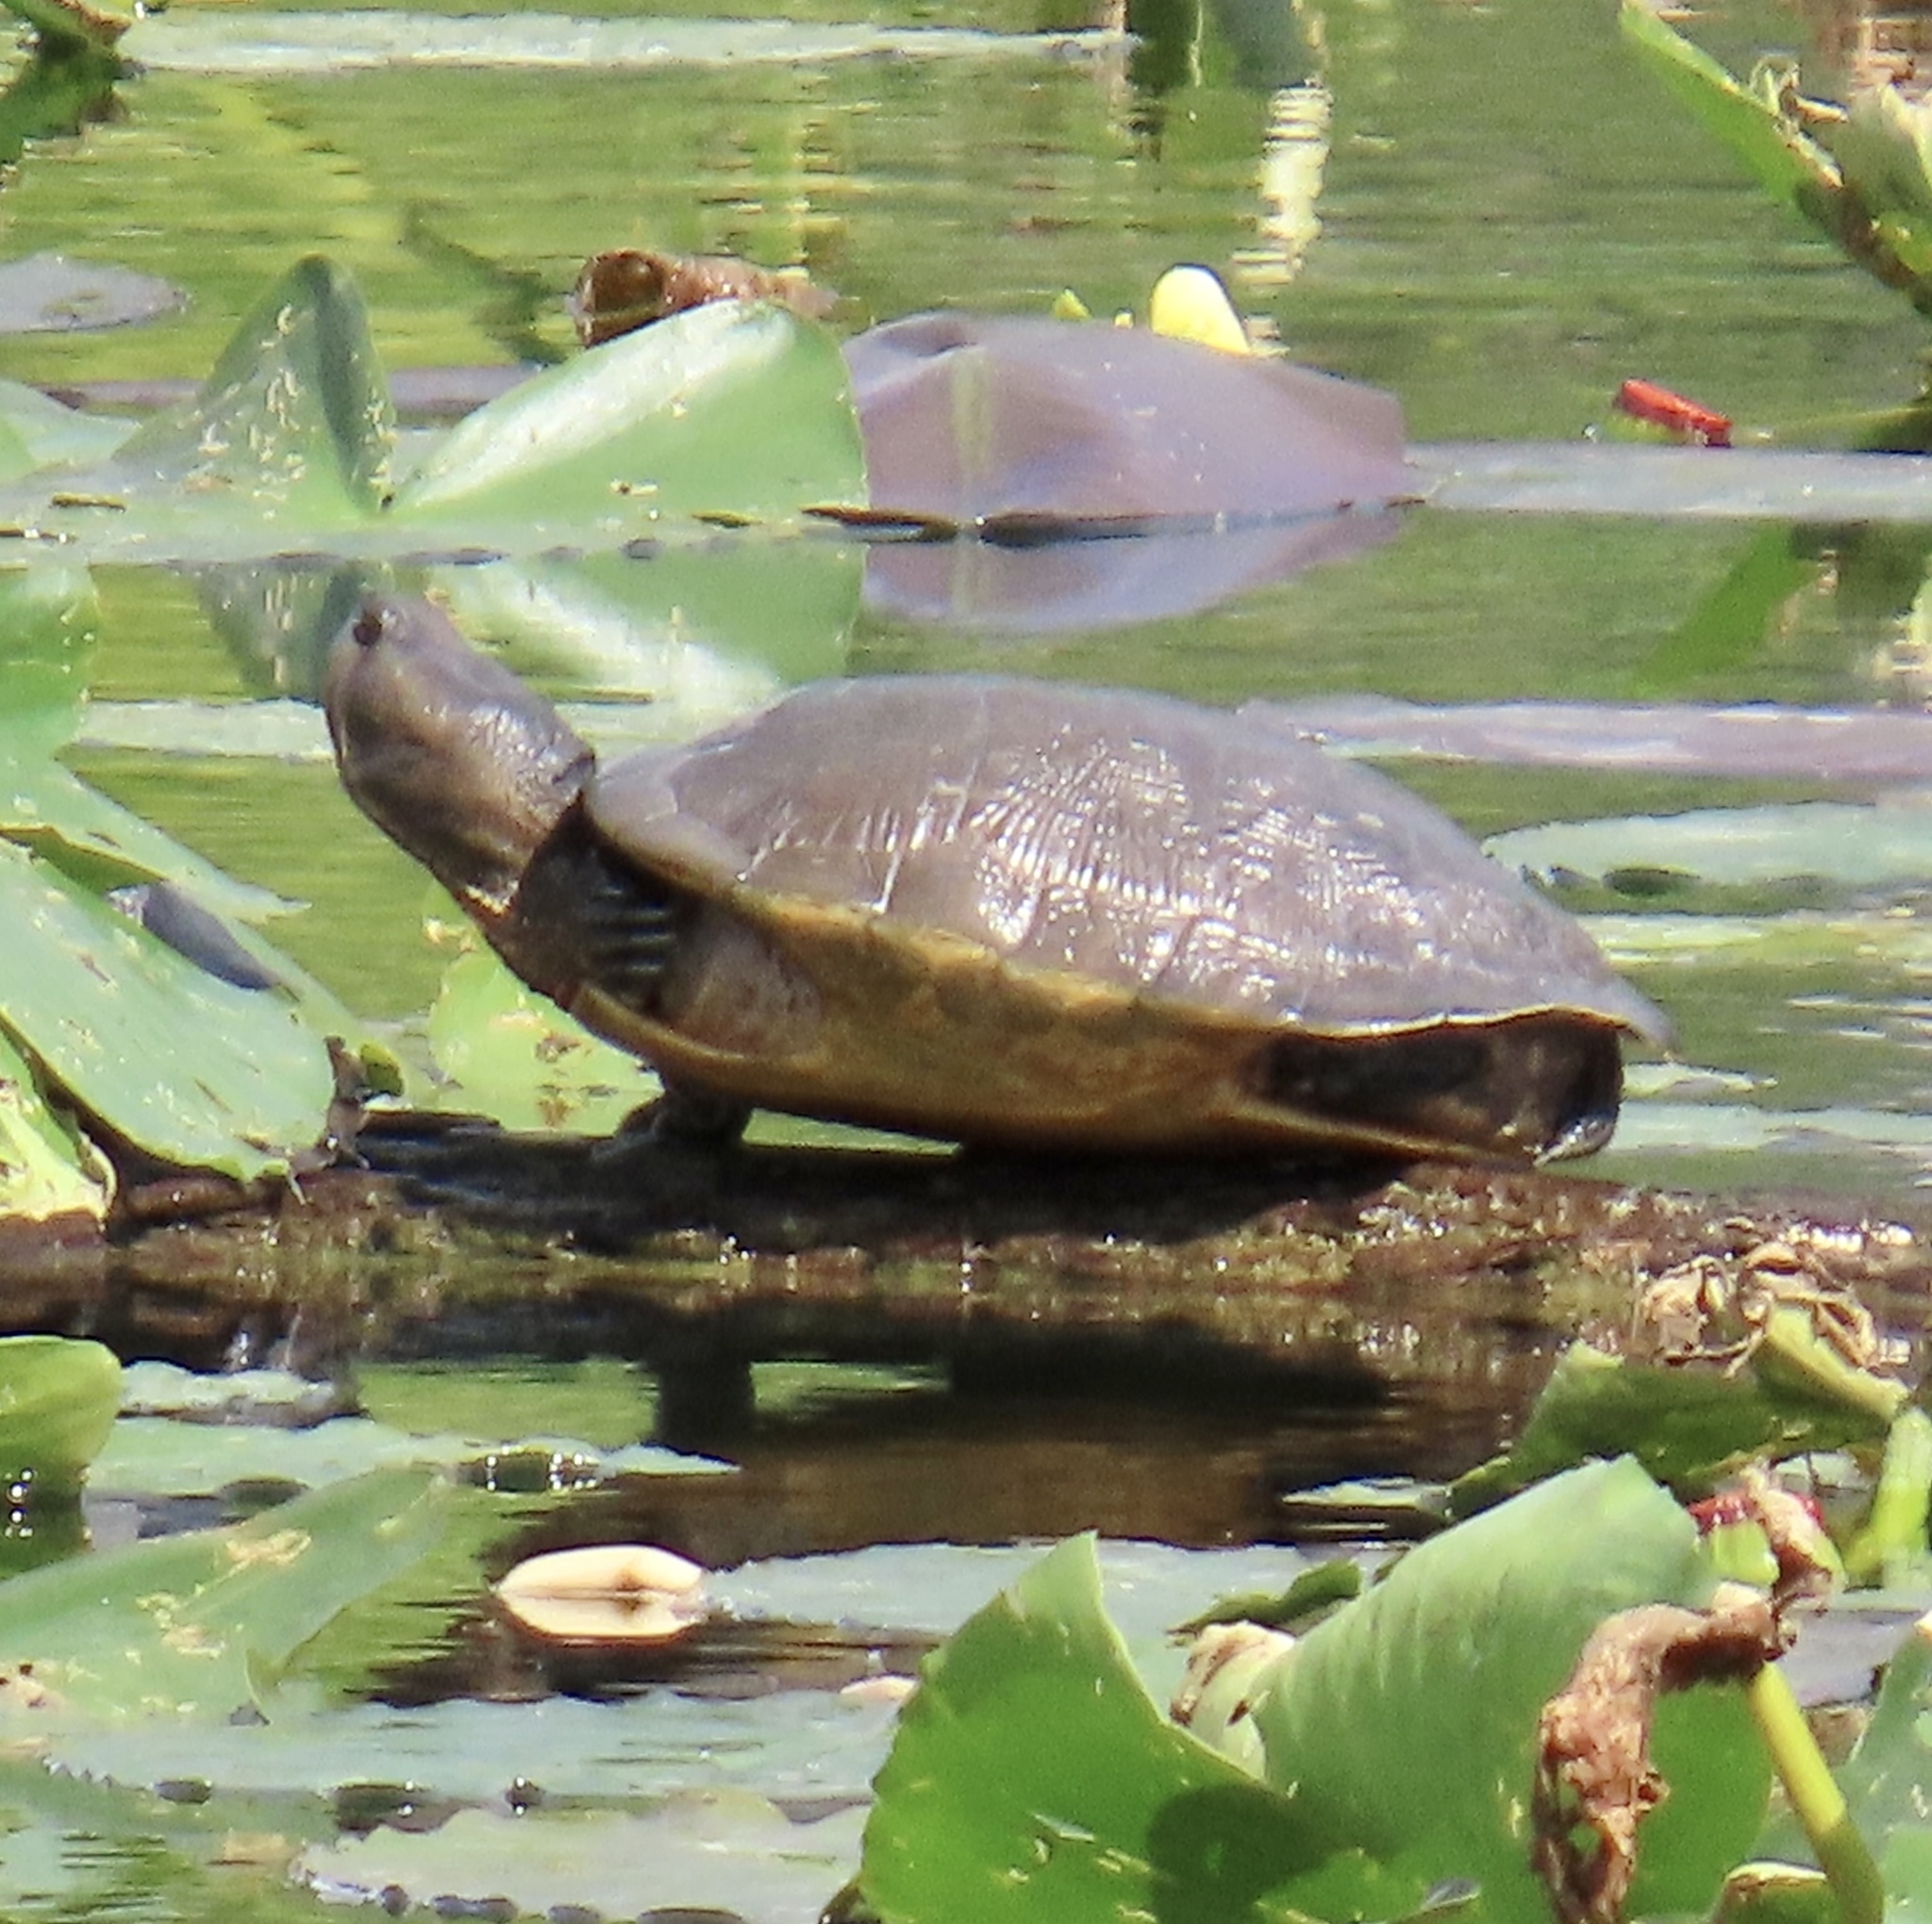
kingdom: Animalia
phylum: Chordata
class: Testudines
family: Emydidae
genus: Trachemys
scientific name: Trachemys decussata
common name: North antillean slider
